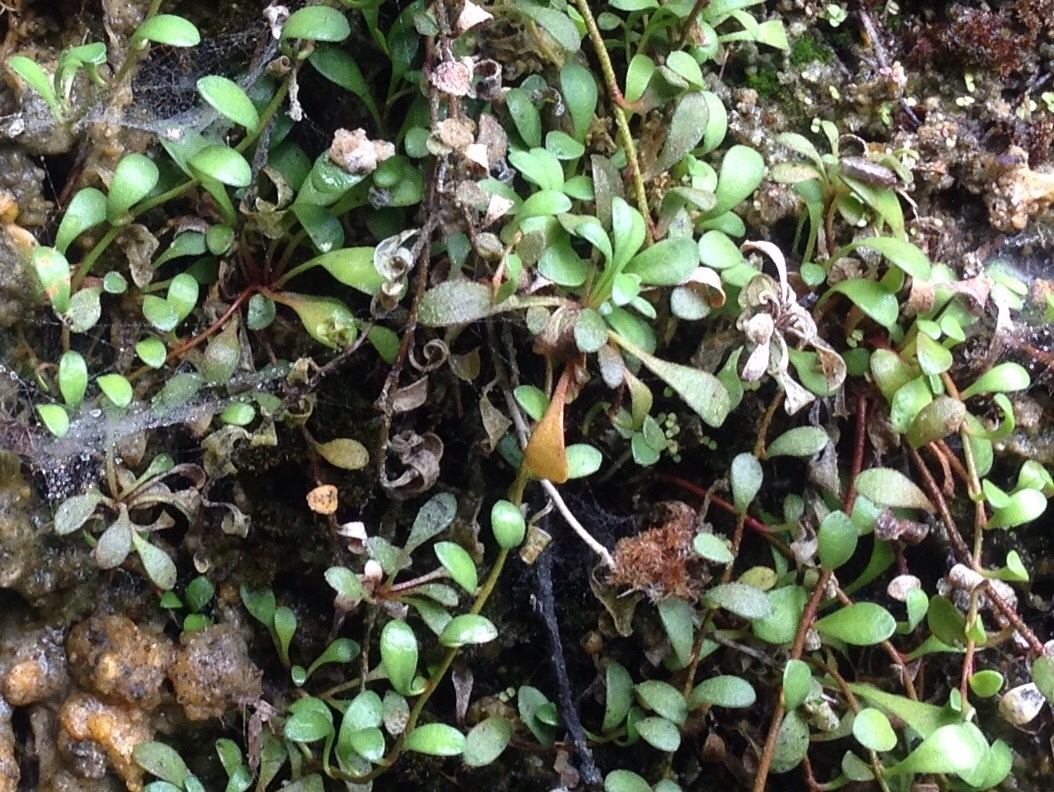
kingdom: Plantae
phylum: Tracheophyta
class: Magnoliopsida
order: Ericales
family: Primulaceae
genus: Samolus
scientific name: Samolus repens
